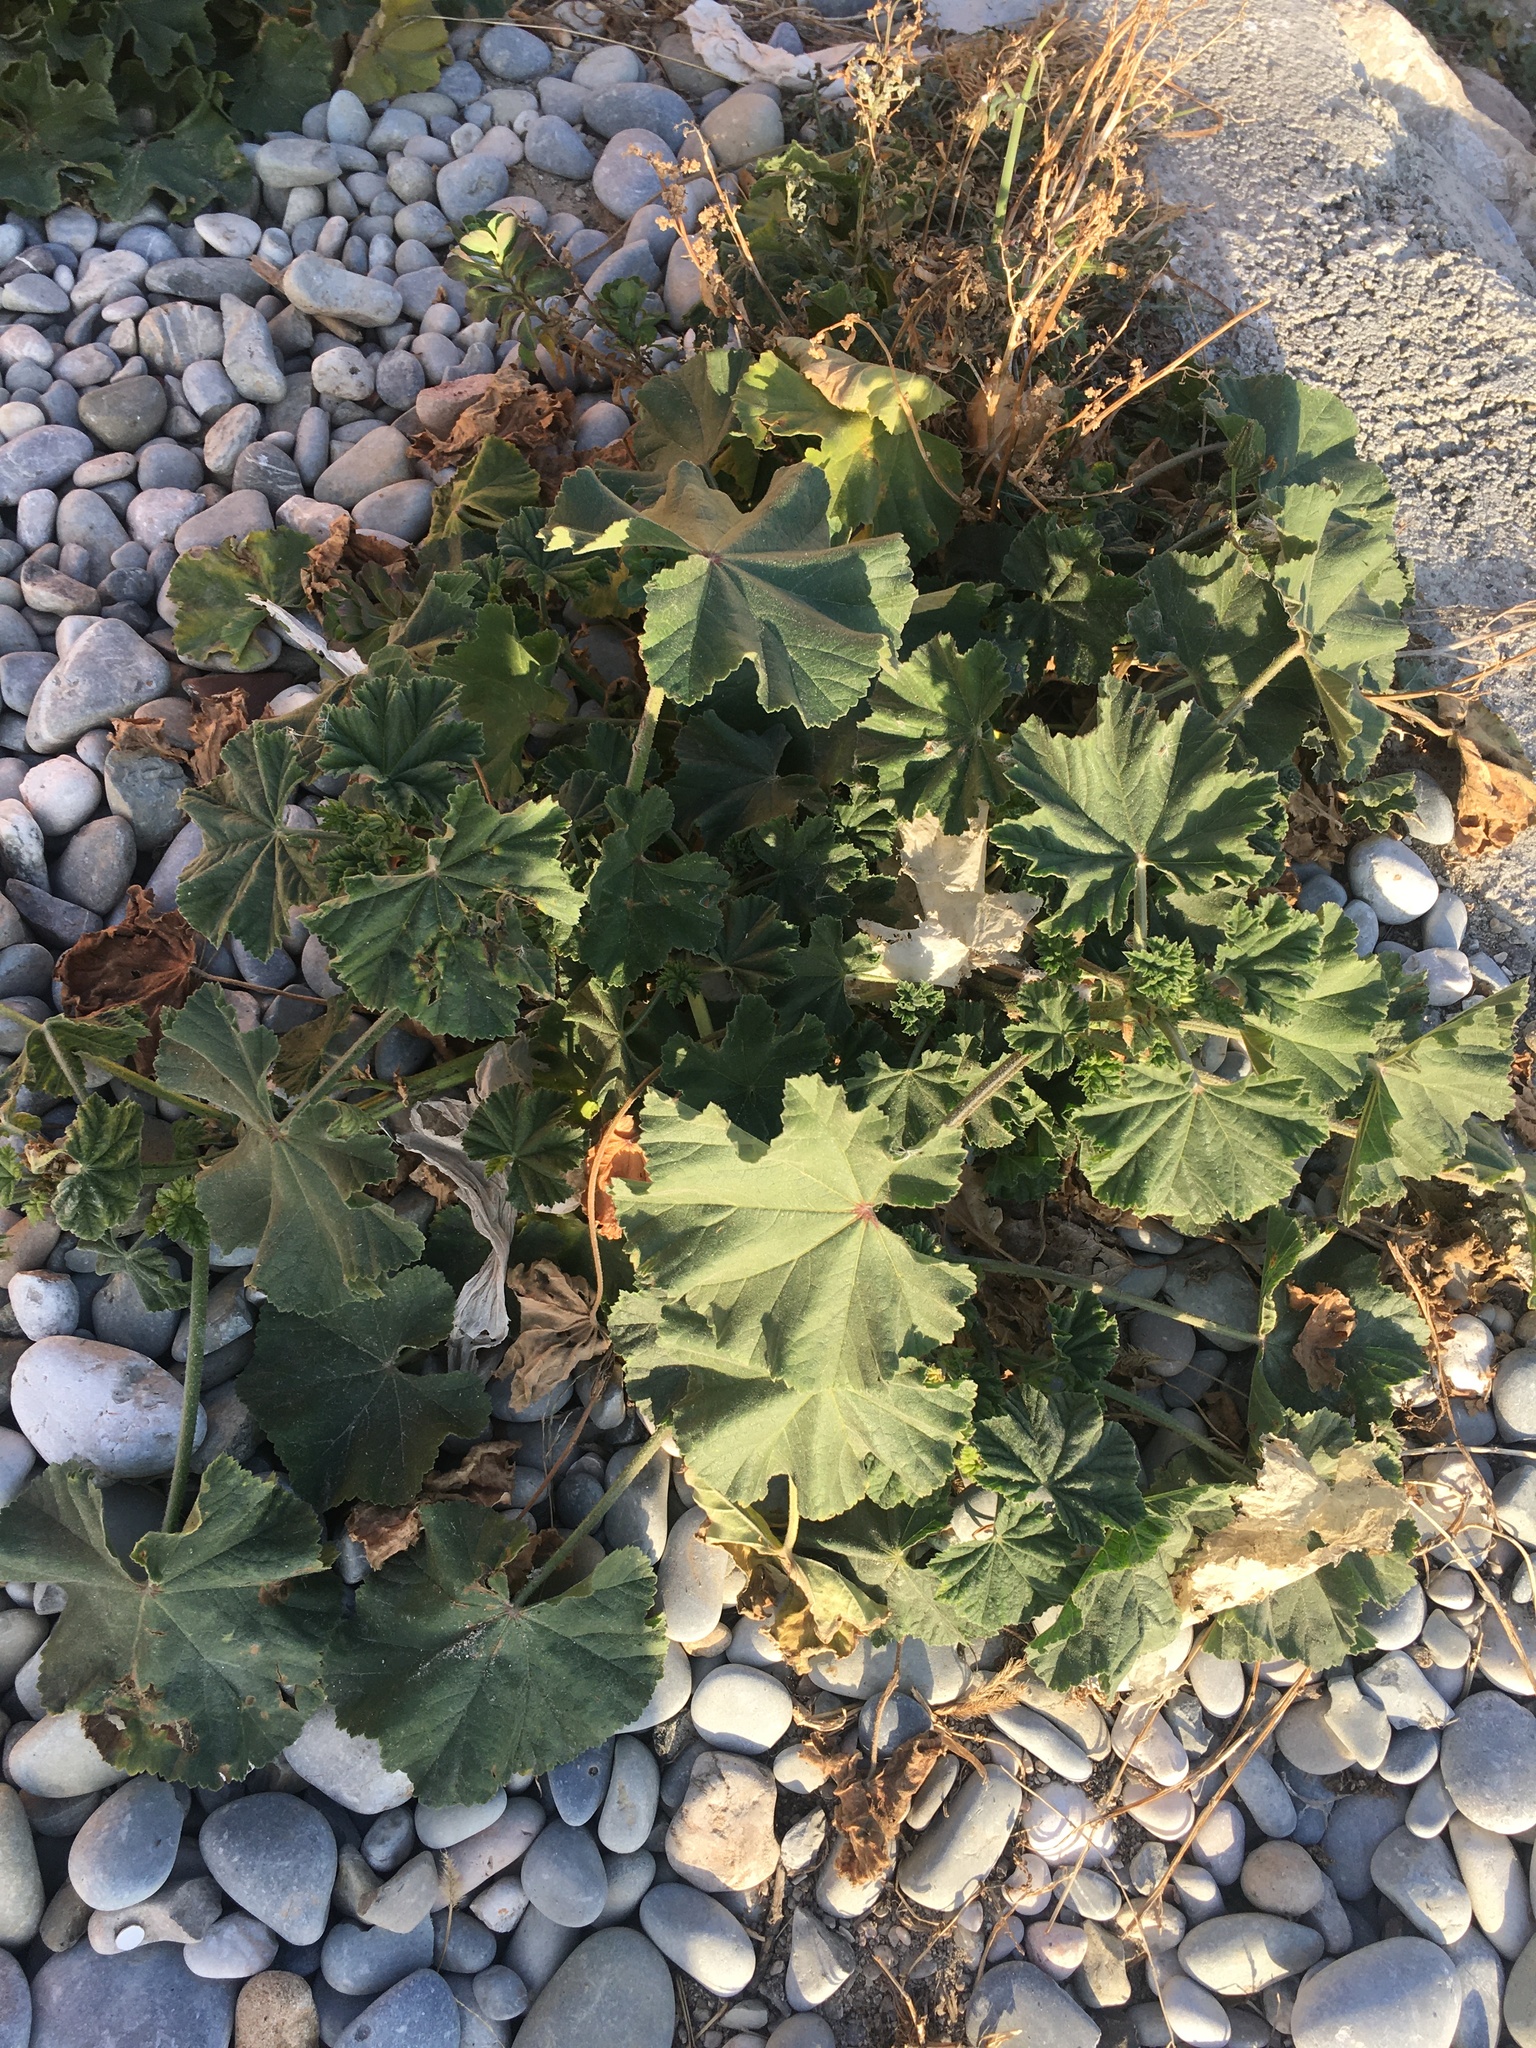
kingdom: Plantae
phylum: Tracheophyta
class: Magnoliopsida
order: Malvales
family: Malvaceae
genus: Malva
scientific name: Malva sylvestris
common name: Common mallow
